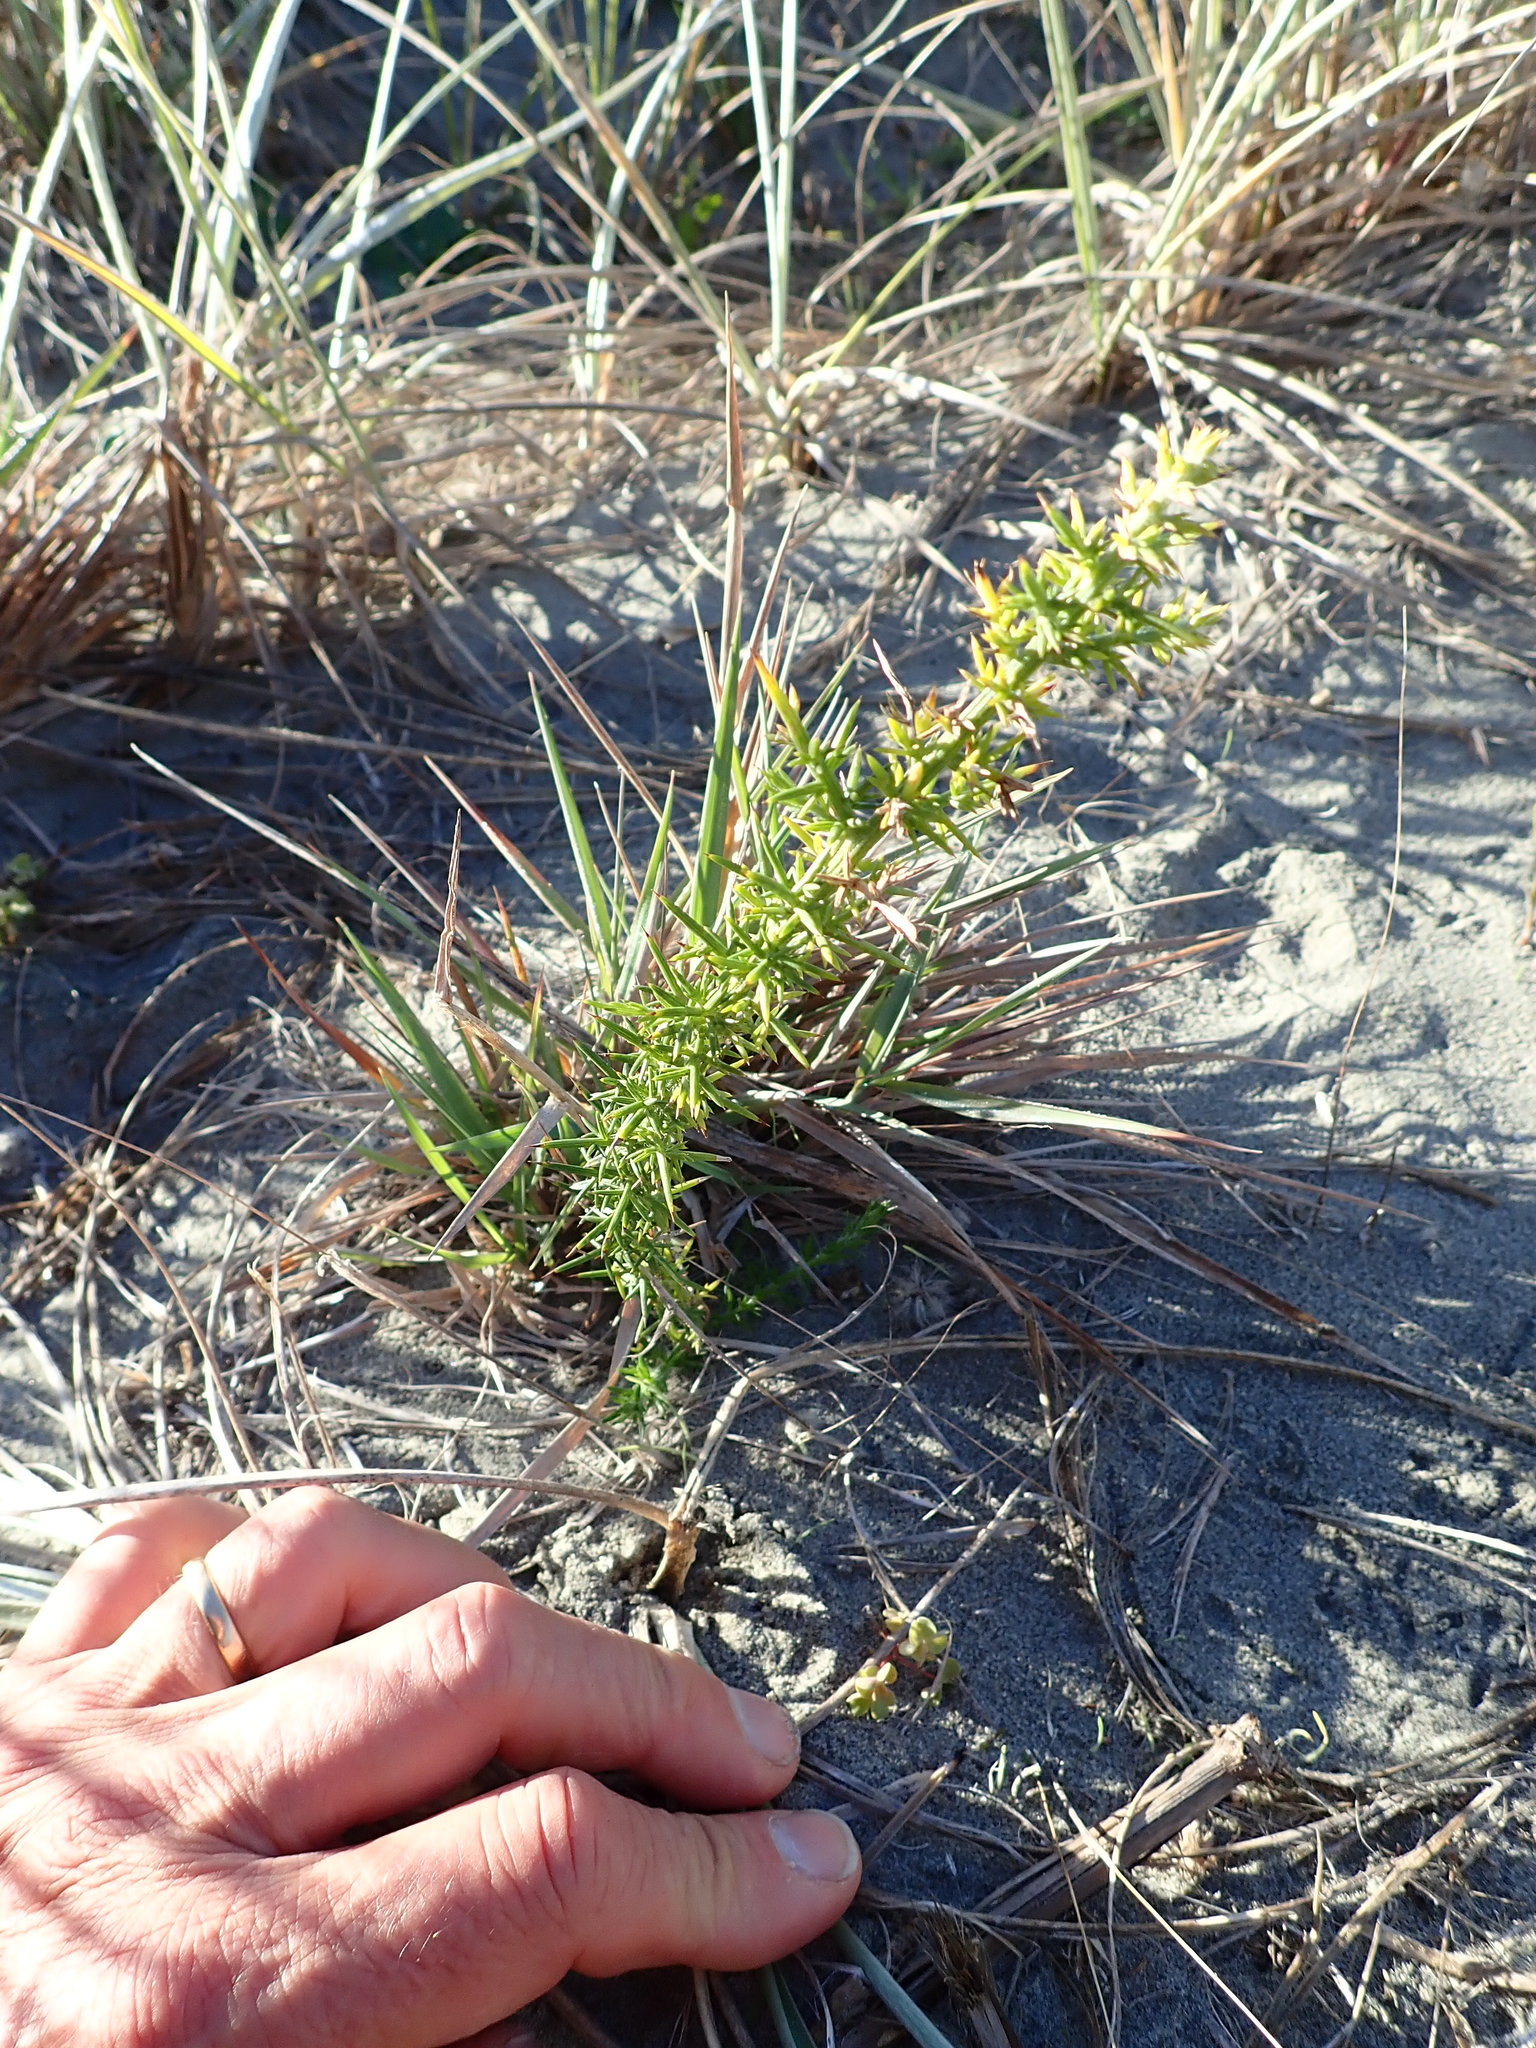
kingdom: Plantae
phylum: Tracheophyta
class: Magnoliopsida
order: Fabales
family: Fabaceae
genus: Ulex
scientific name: Ulex europaeus
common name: Common gorse
